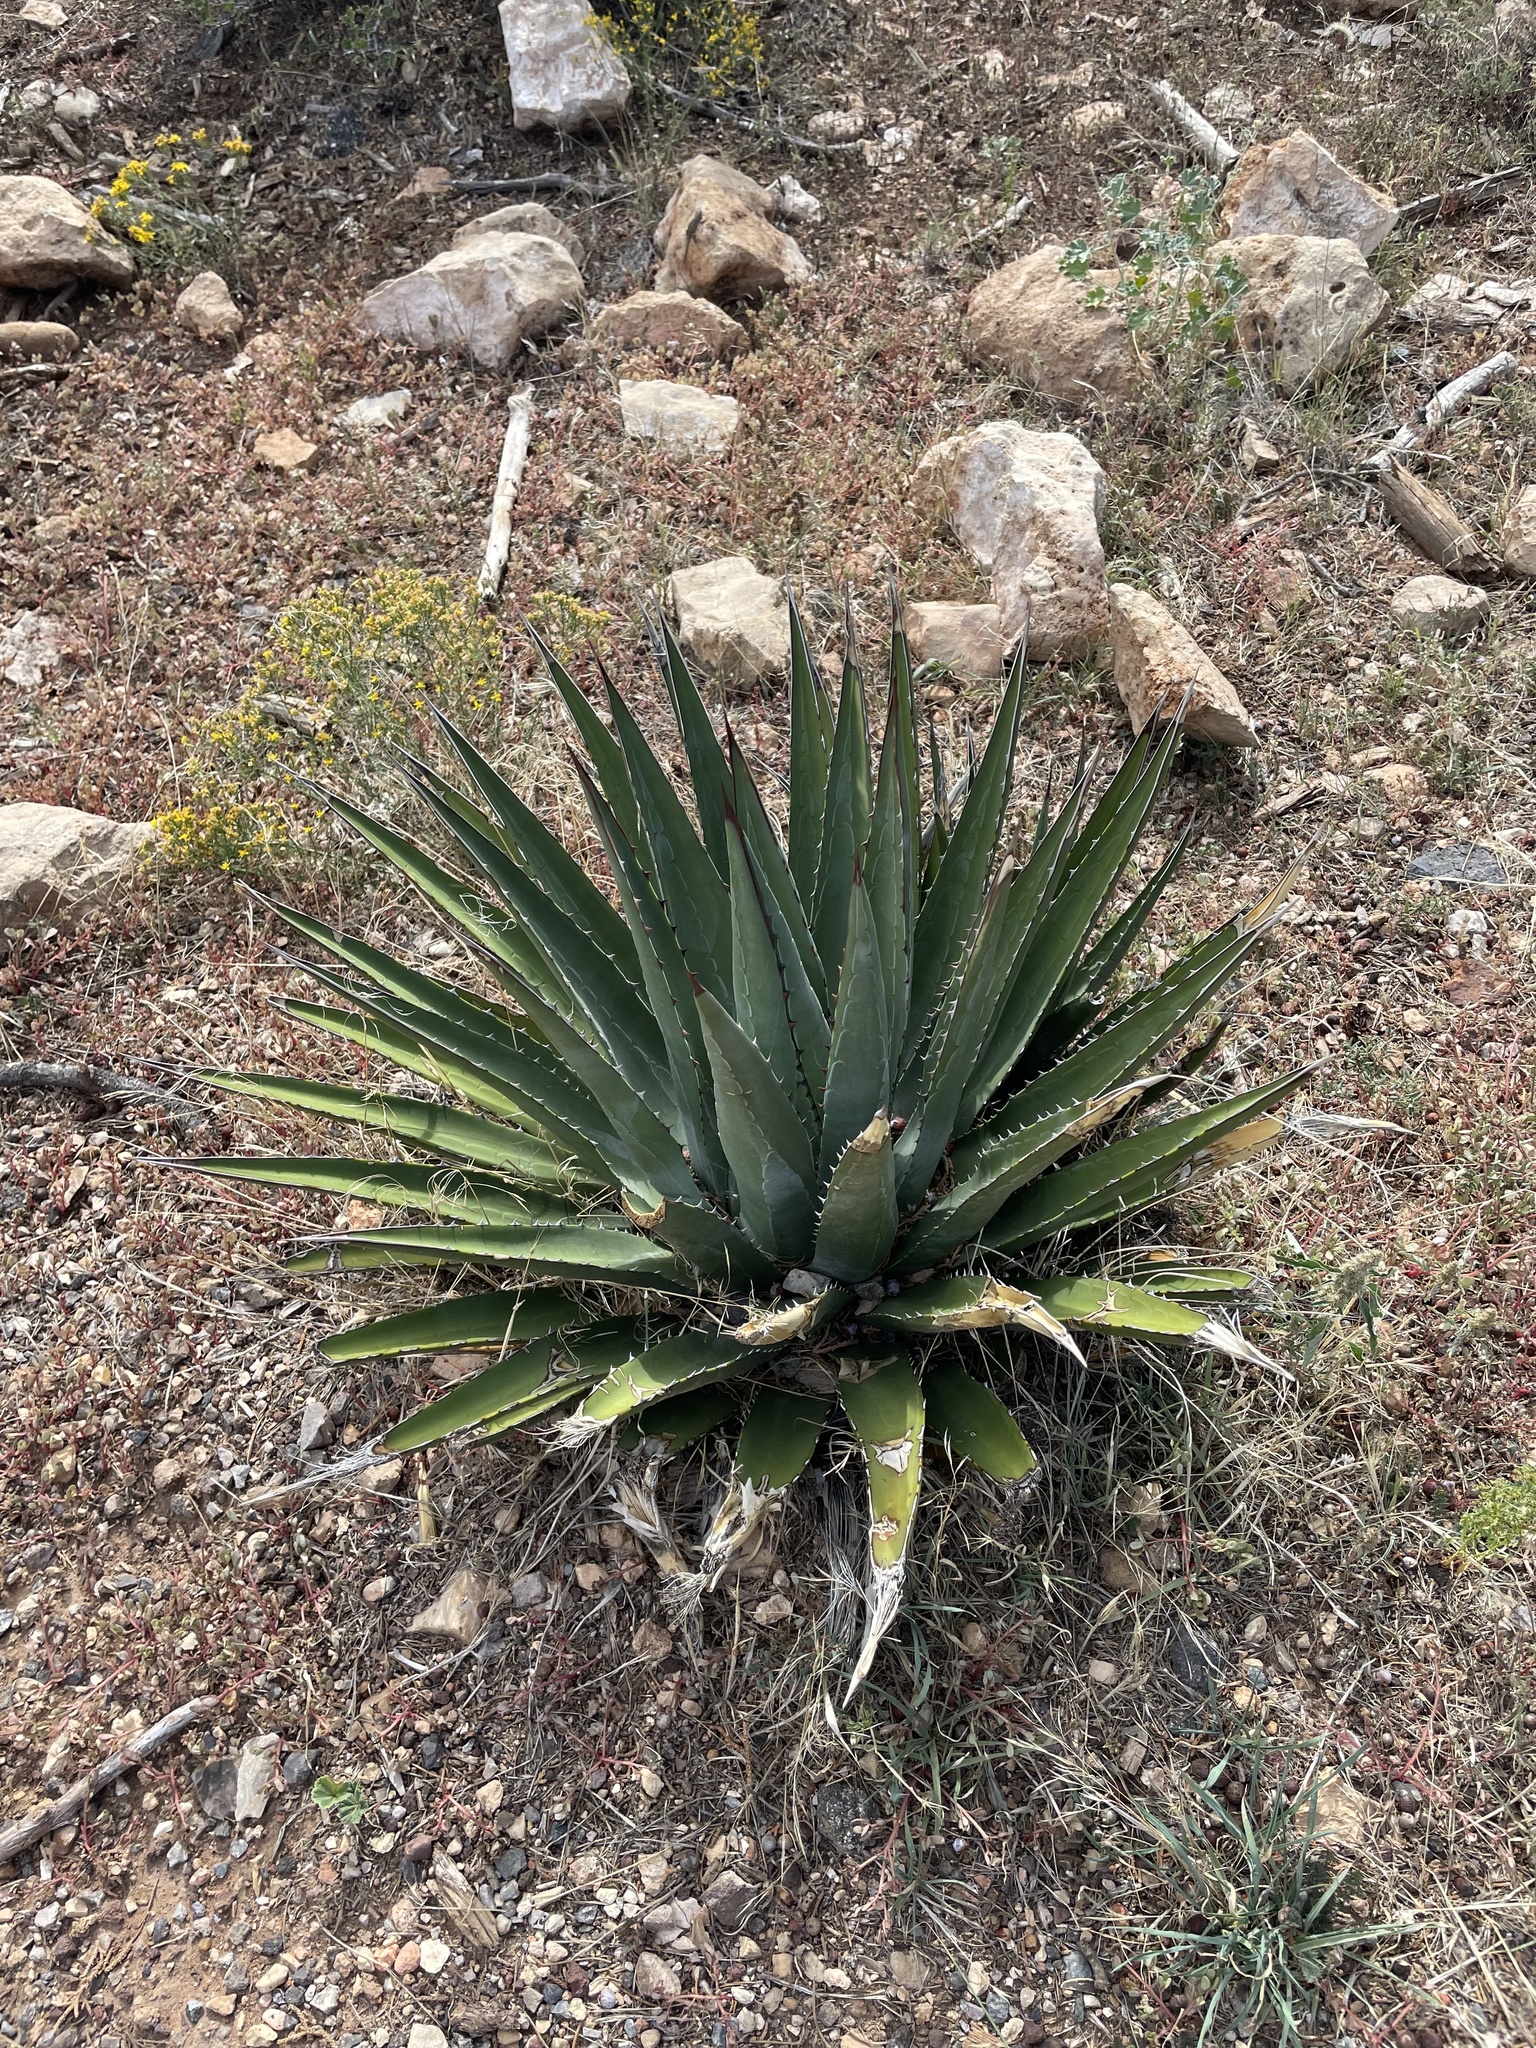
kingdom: Plantae
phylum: Tracheophyta
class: Liliopsida
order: Asparagales
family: Asparagaceae
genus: Agave
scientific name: Agave utahensis
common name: Utah agave
